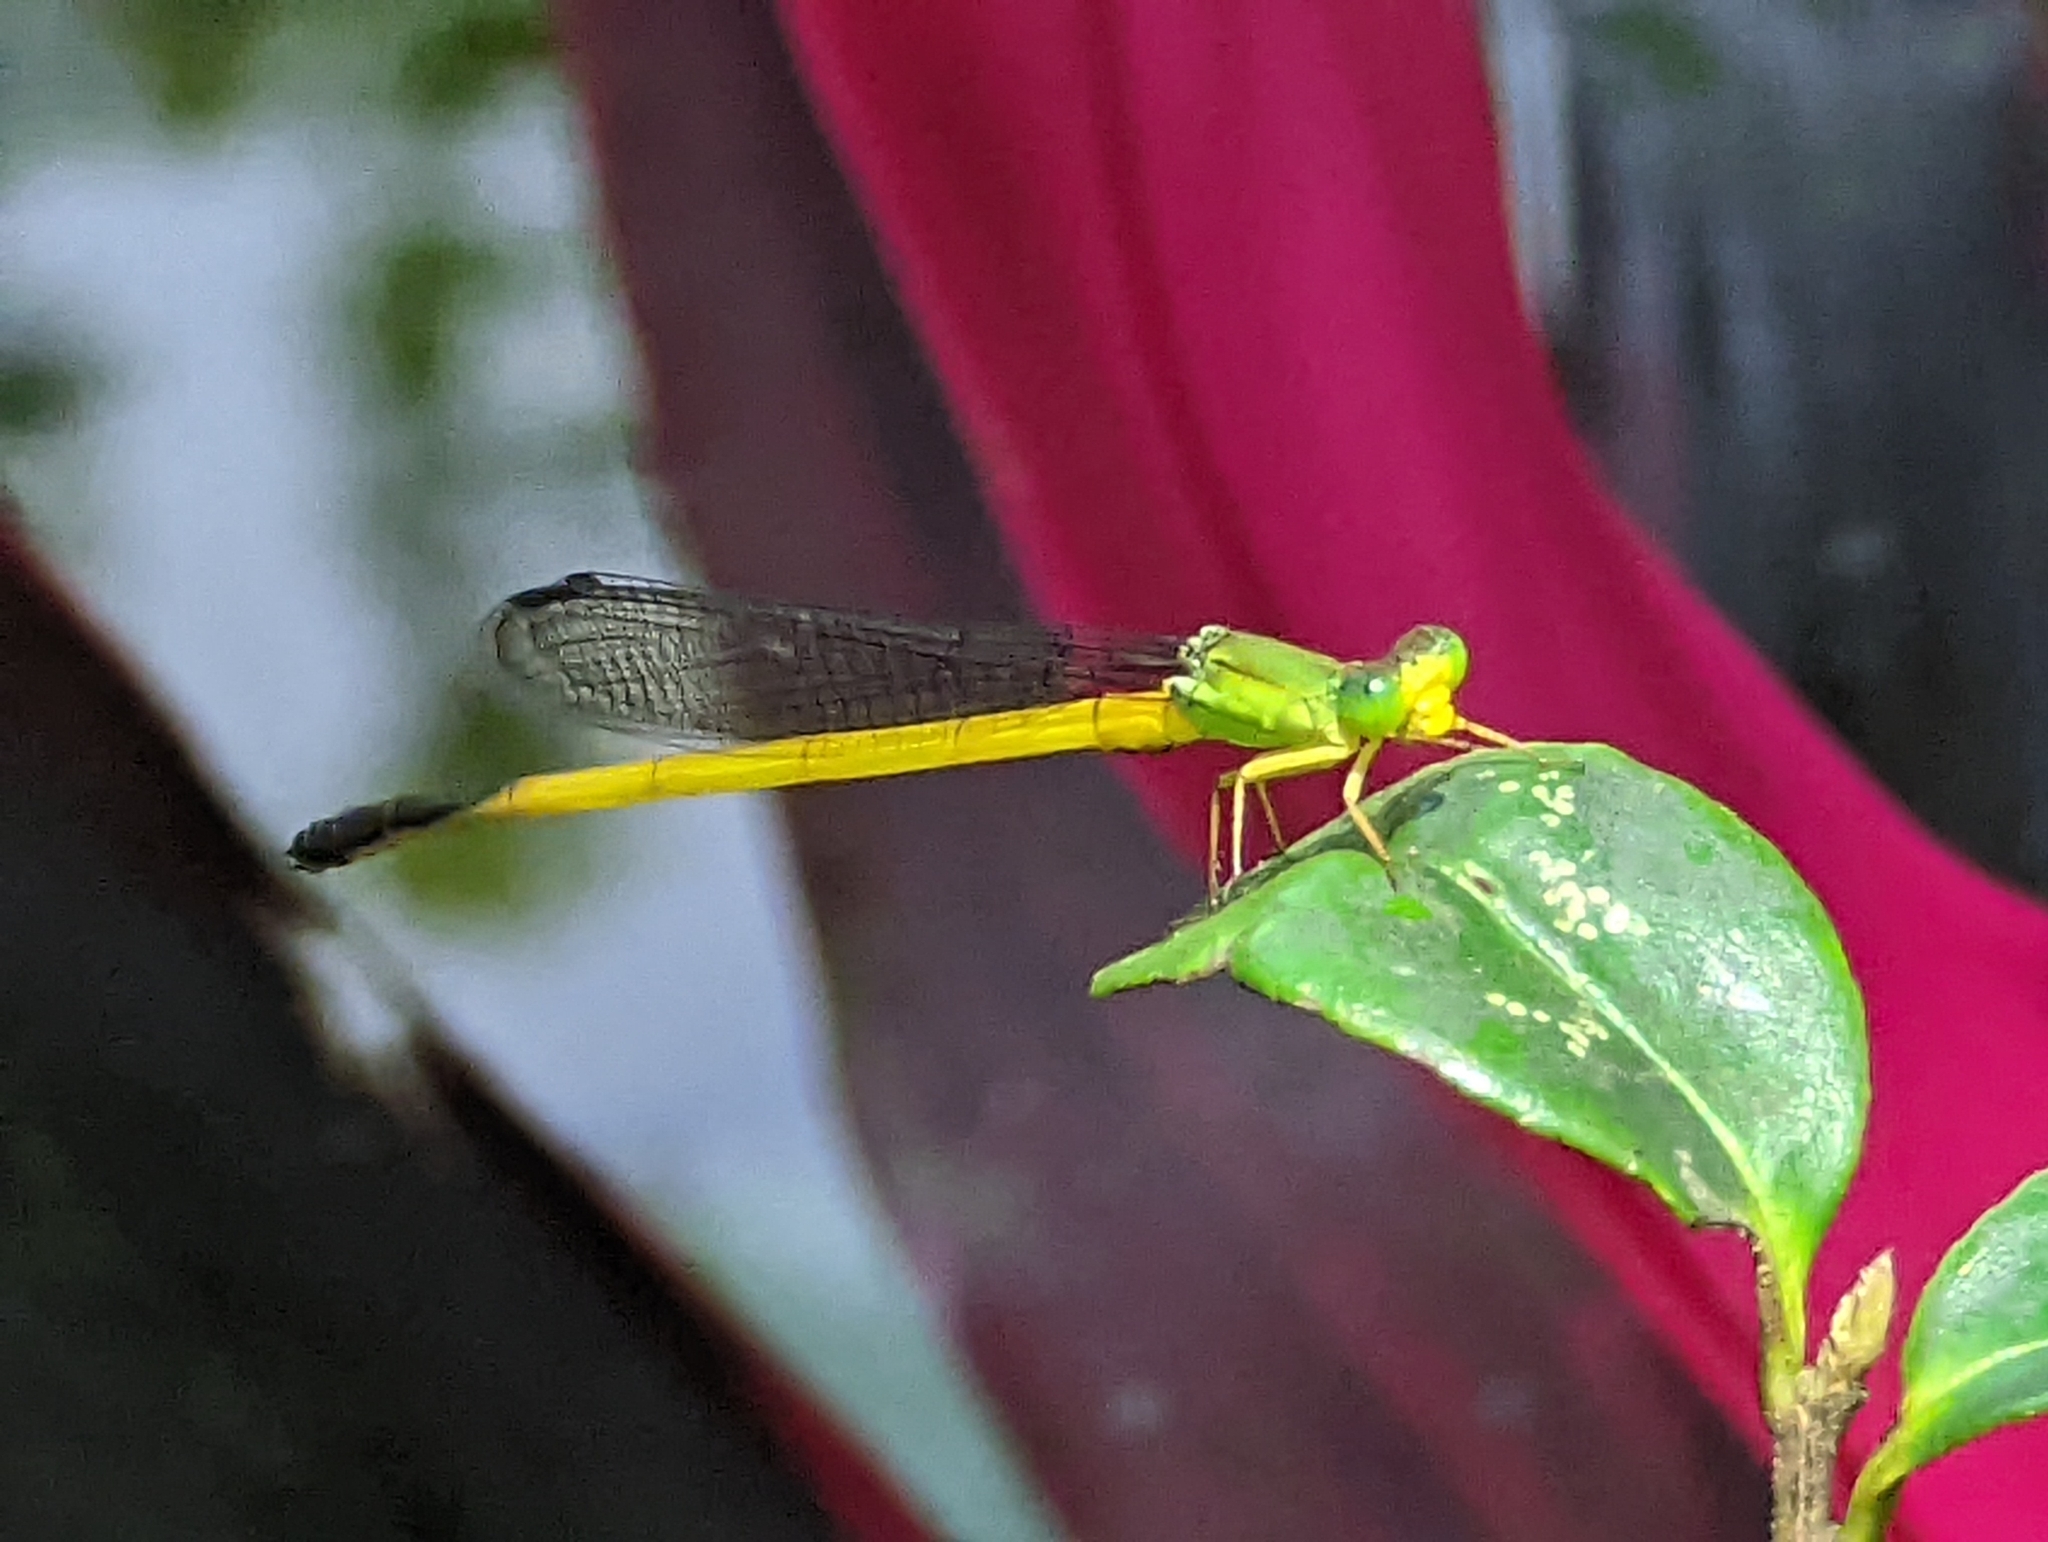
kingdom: Animalia
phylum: Arthropoda
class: Insecta
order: Odonata
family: Coenagrionidae
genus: Ceriagrion
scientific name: Ceriagrion fallax
